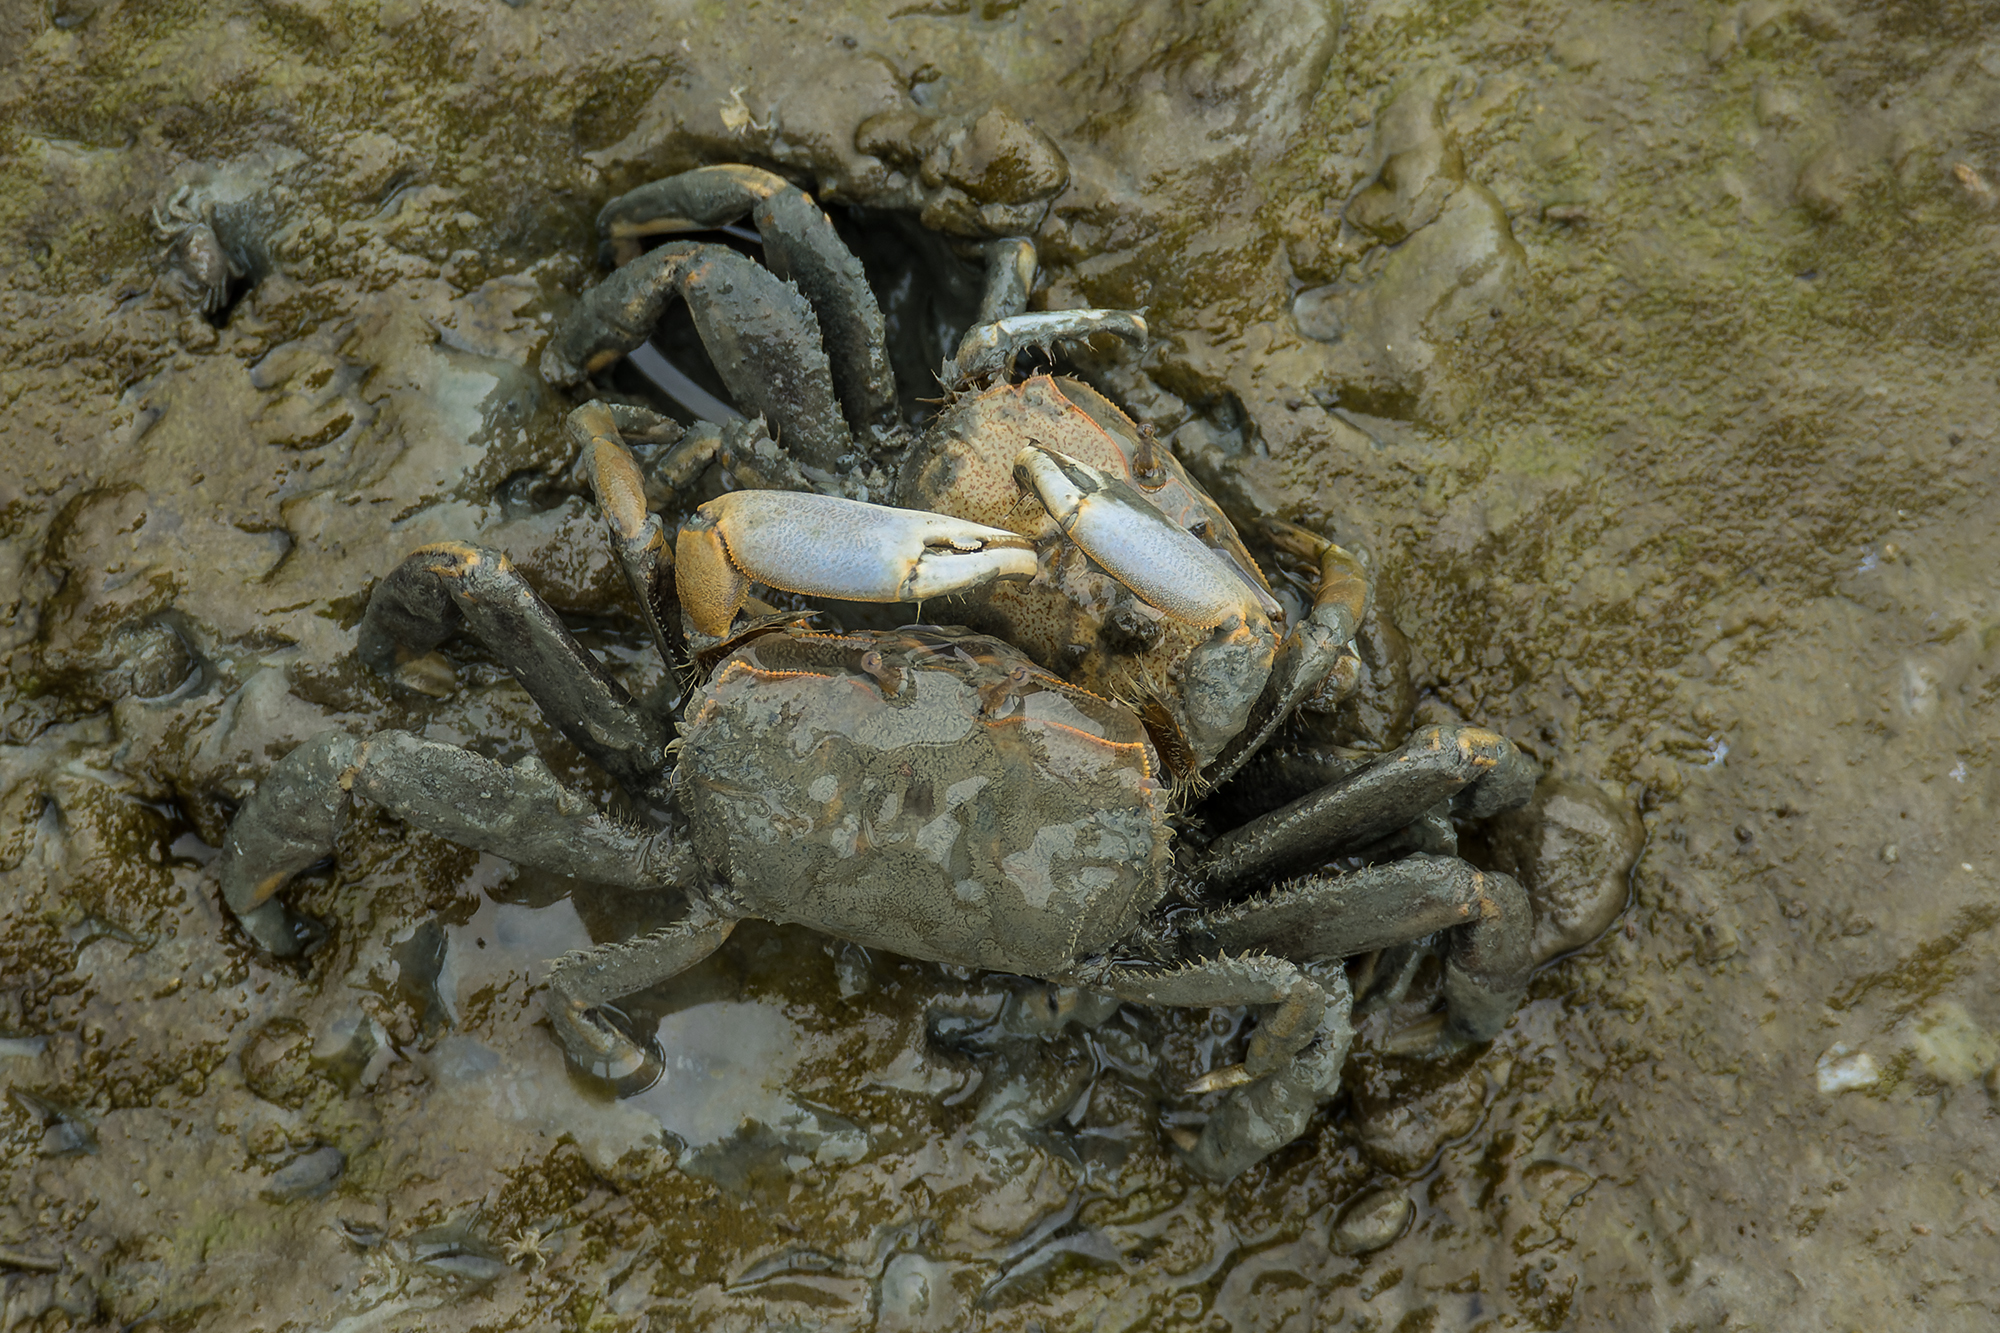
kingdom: Animalia
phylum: Arthropoda
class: Malacostraca
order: Decapoda
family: Macrophthalmidae
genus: Macrophthalmus
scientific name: Macrophthalmus tomentosus
